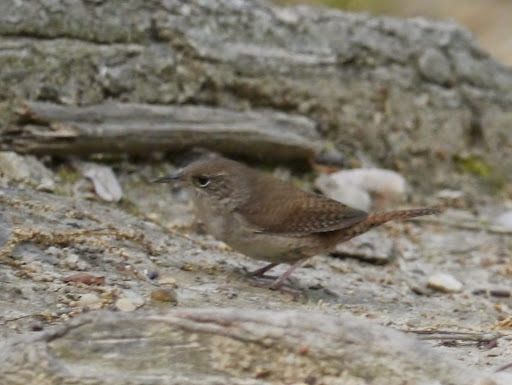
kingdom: Animalia
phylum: Chordata
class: Aves
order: Passeriformes
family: Troglodytidae
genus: Troglodytes
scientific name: Troglodytes aedon
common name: House wren
